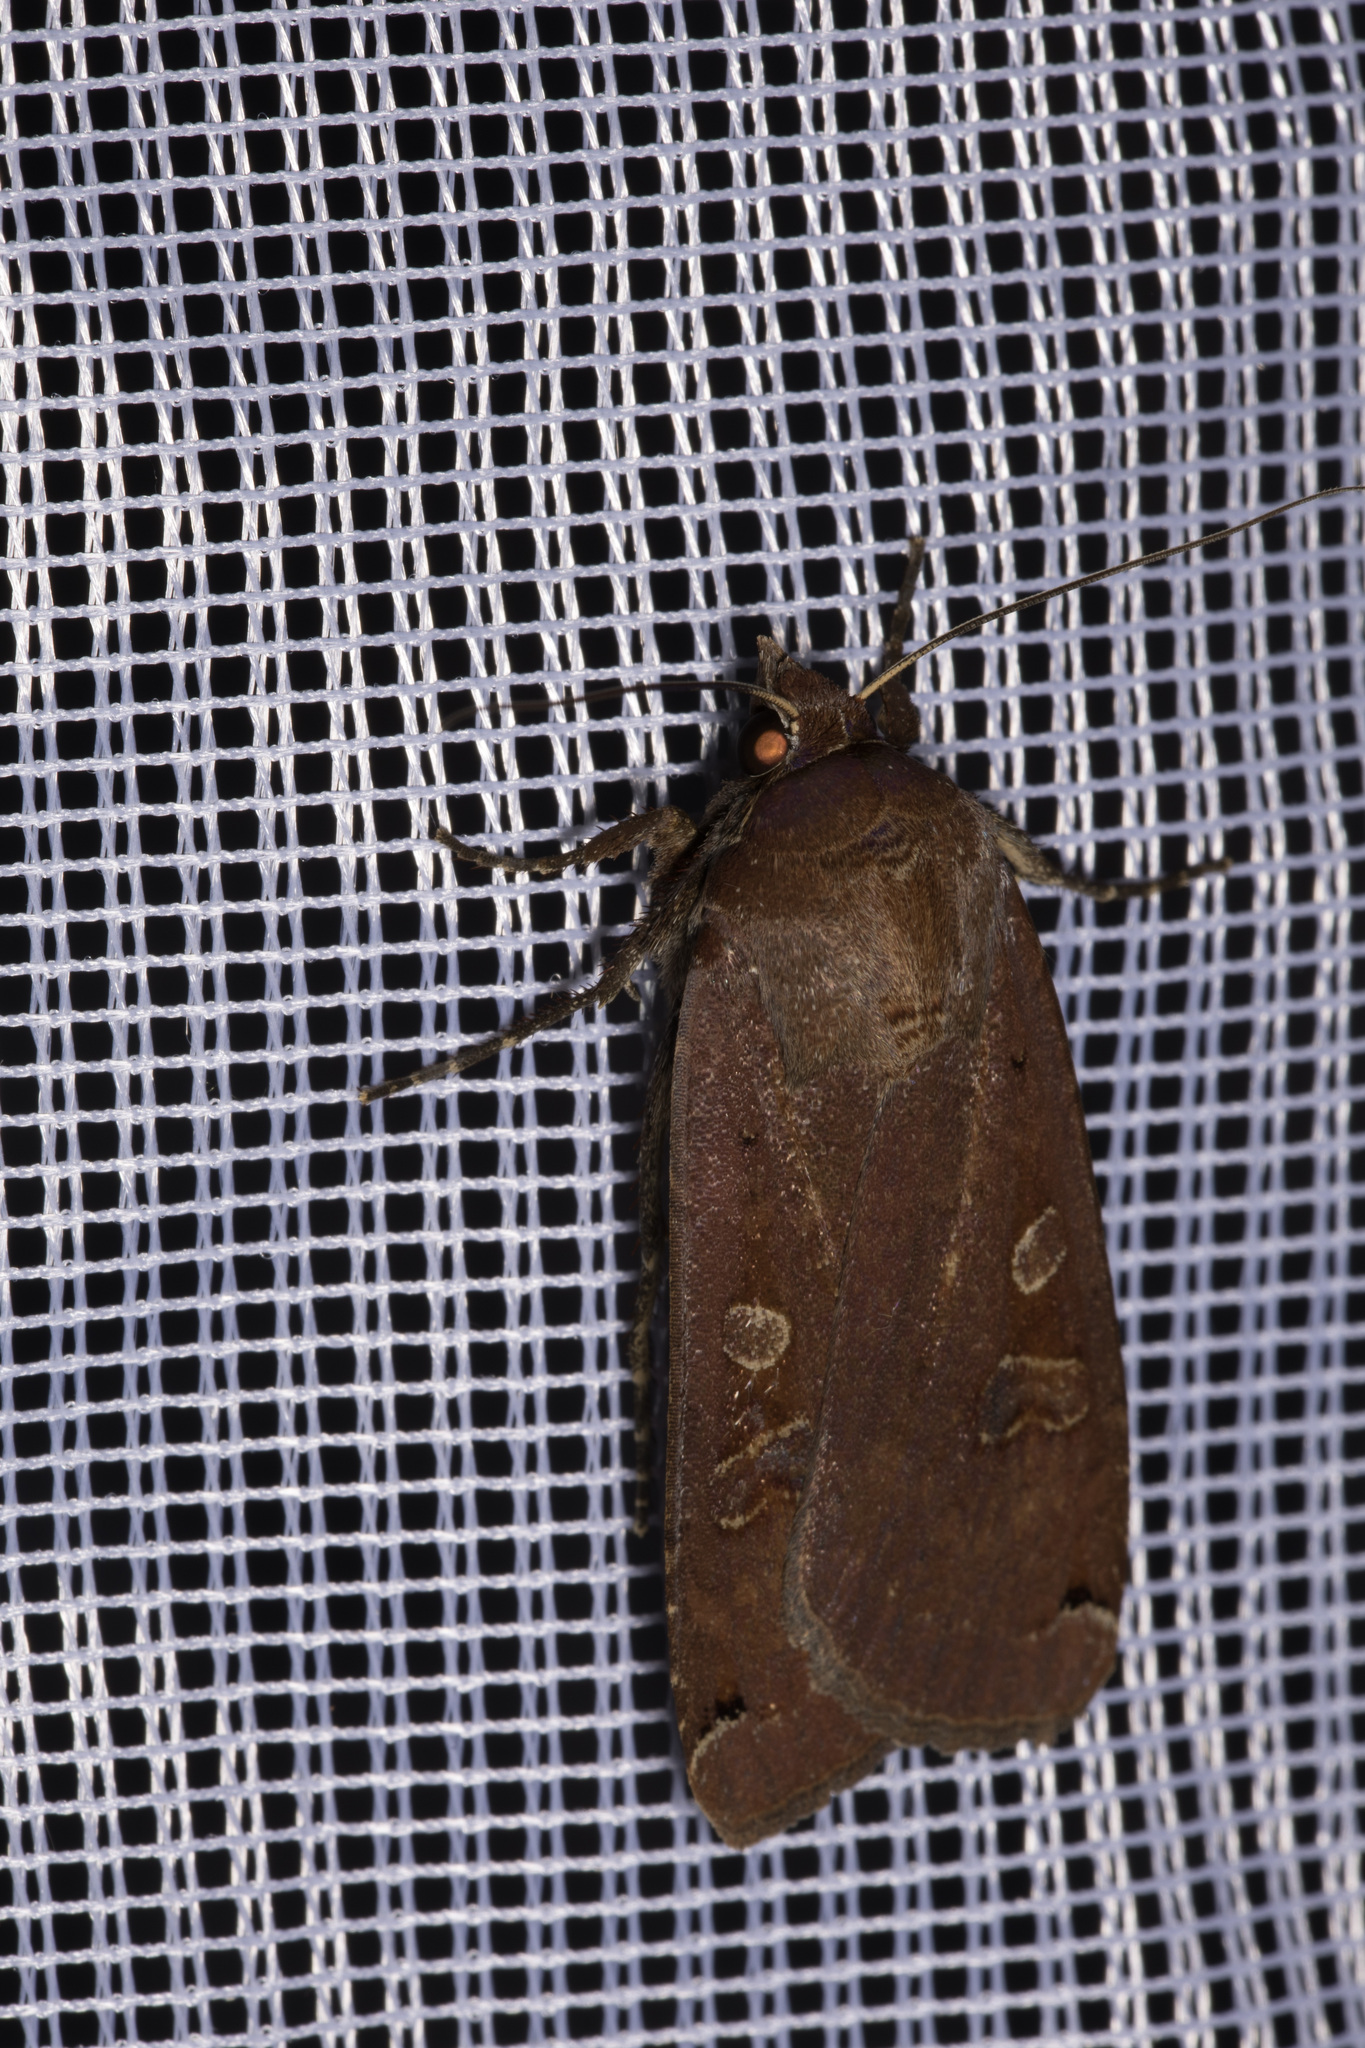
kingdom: Animalia
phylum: Arthropoda
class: Insecta
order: Lepidoptera
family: Noctuidae
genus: Noctua
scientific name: Noctua pronuba
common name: Large yellow underwing
